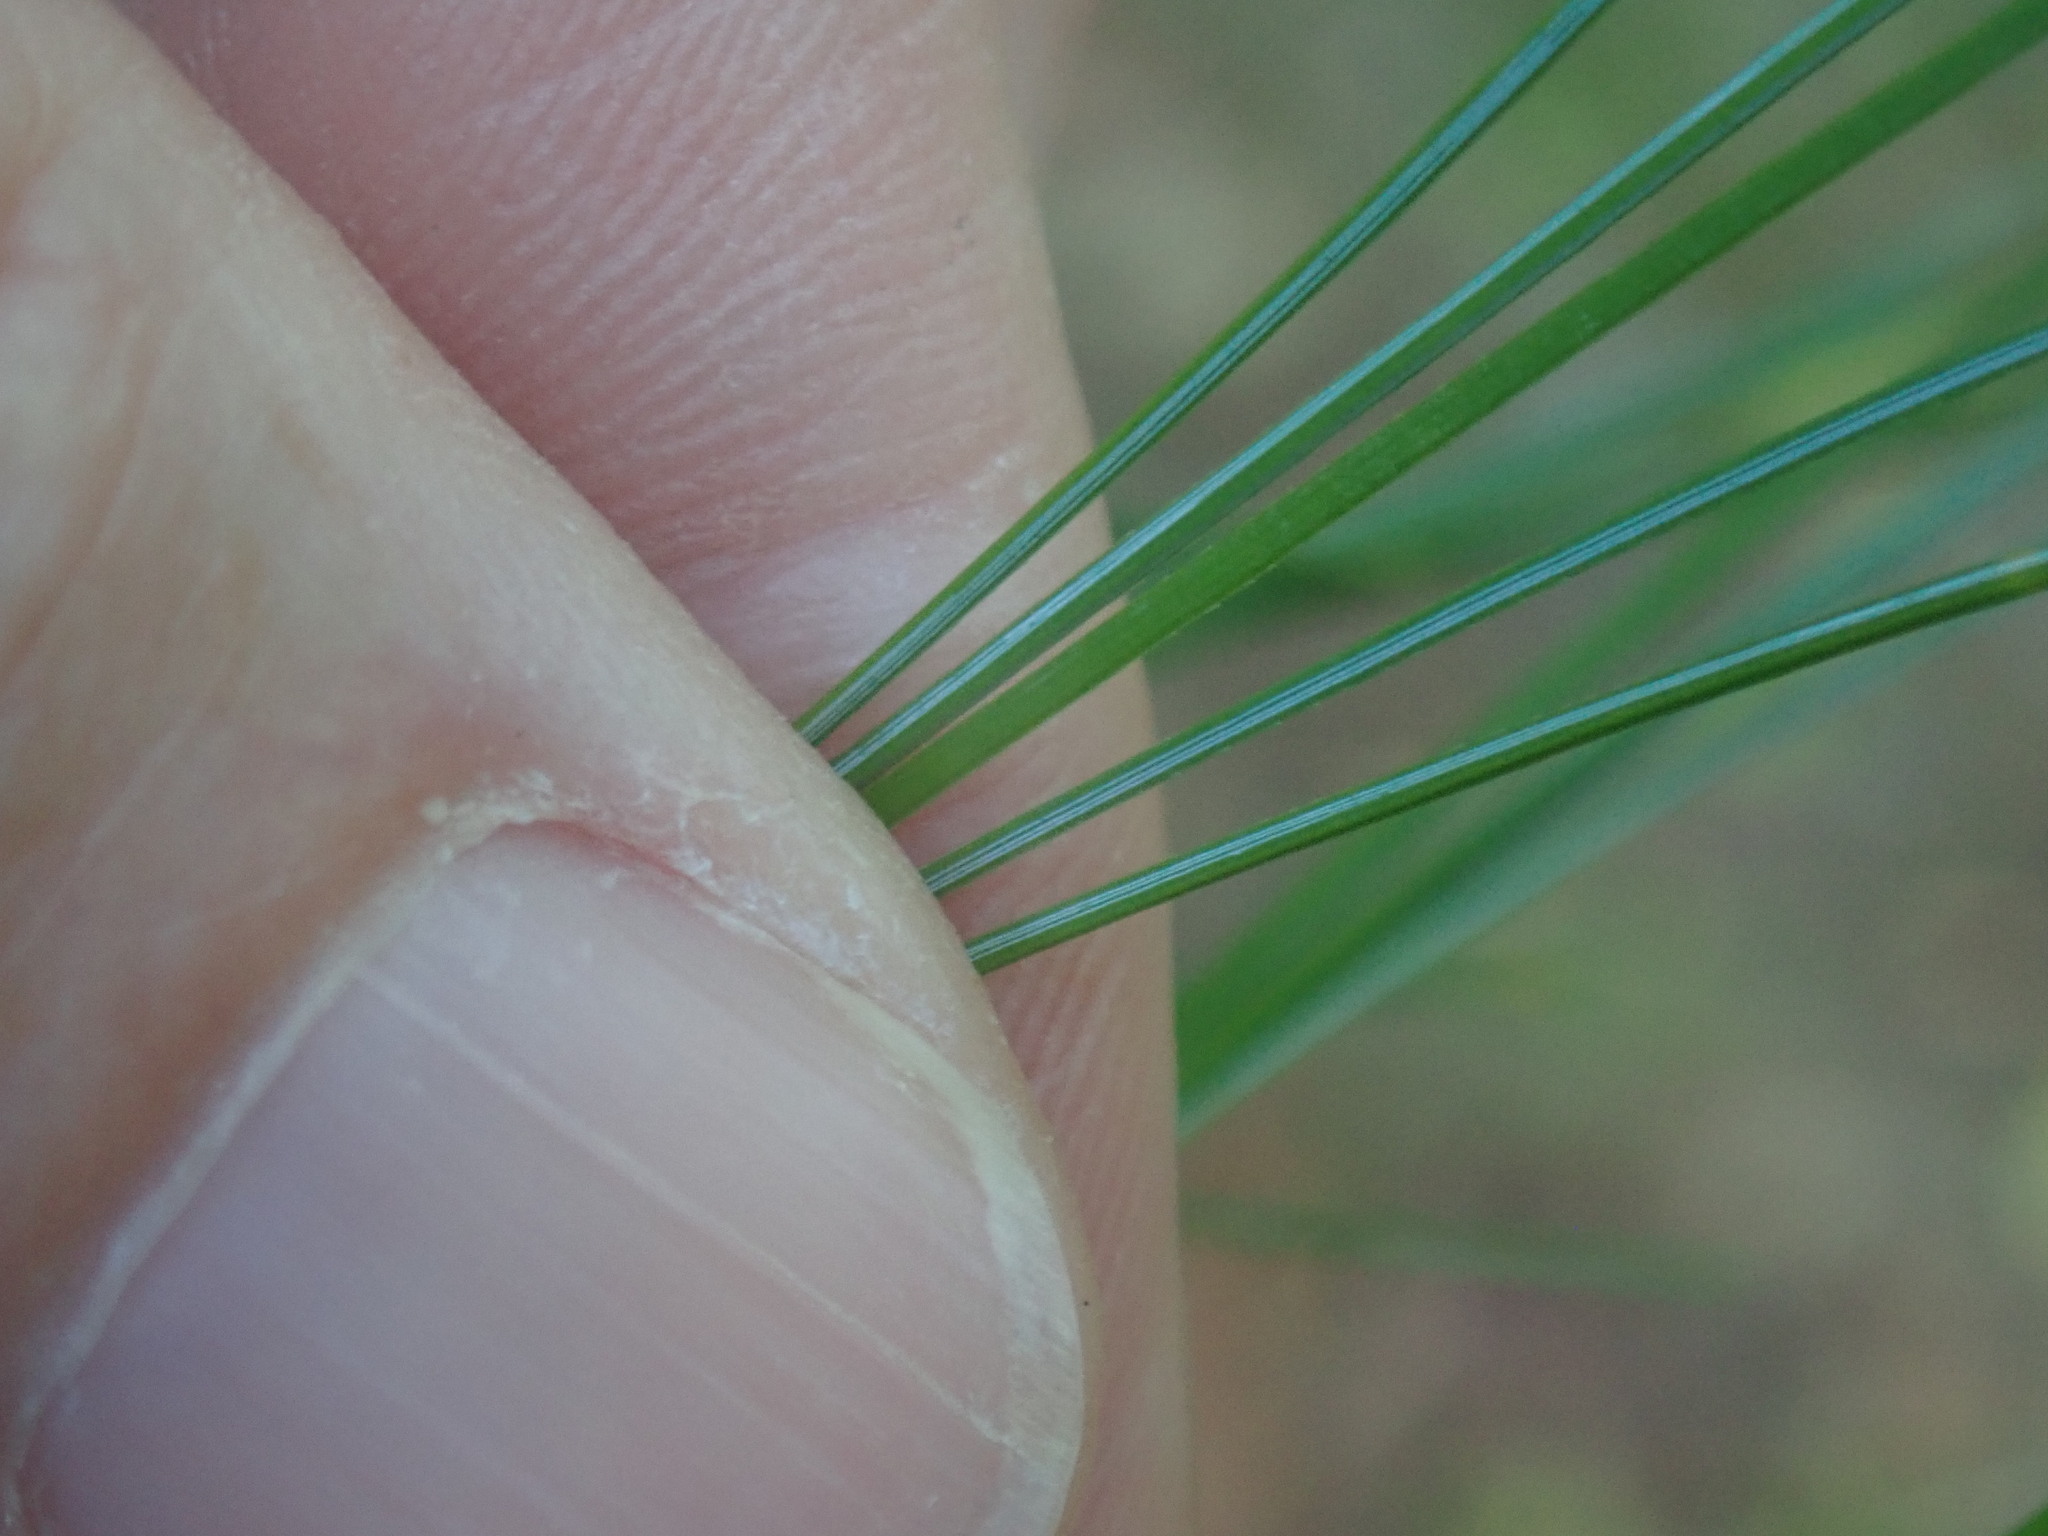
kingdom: Plantae
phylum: Tracheophyta
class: Pinopsida
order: Pinales
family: Pinaceae
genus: Pinus
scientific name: Pinus strobus
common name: Weymouth pine
